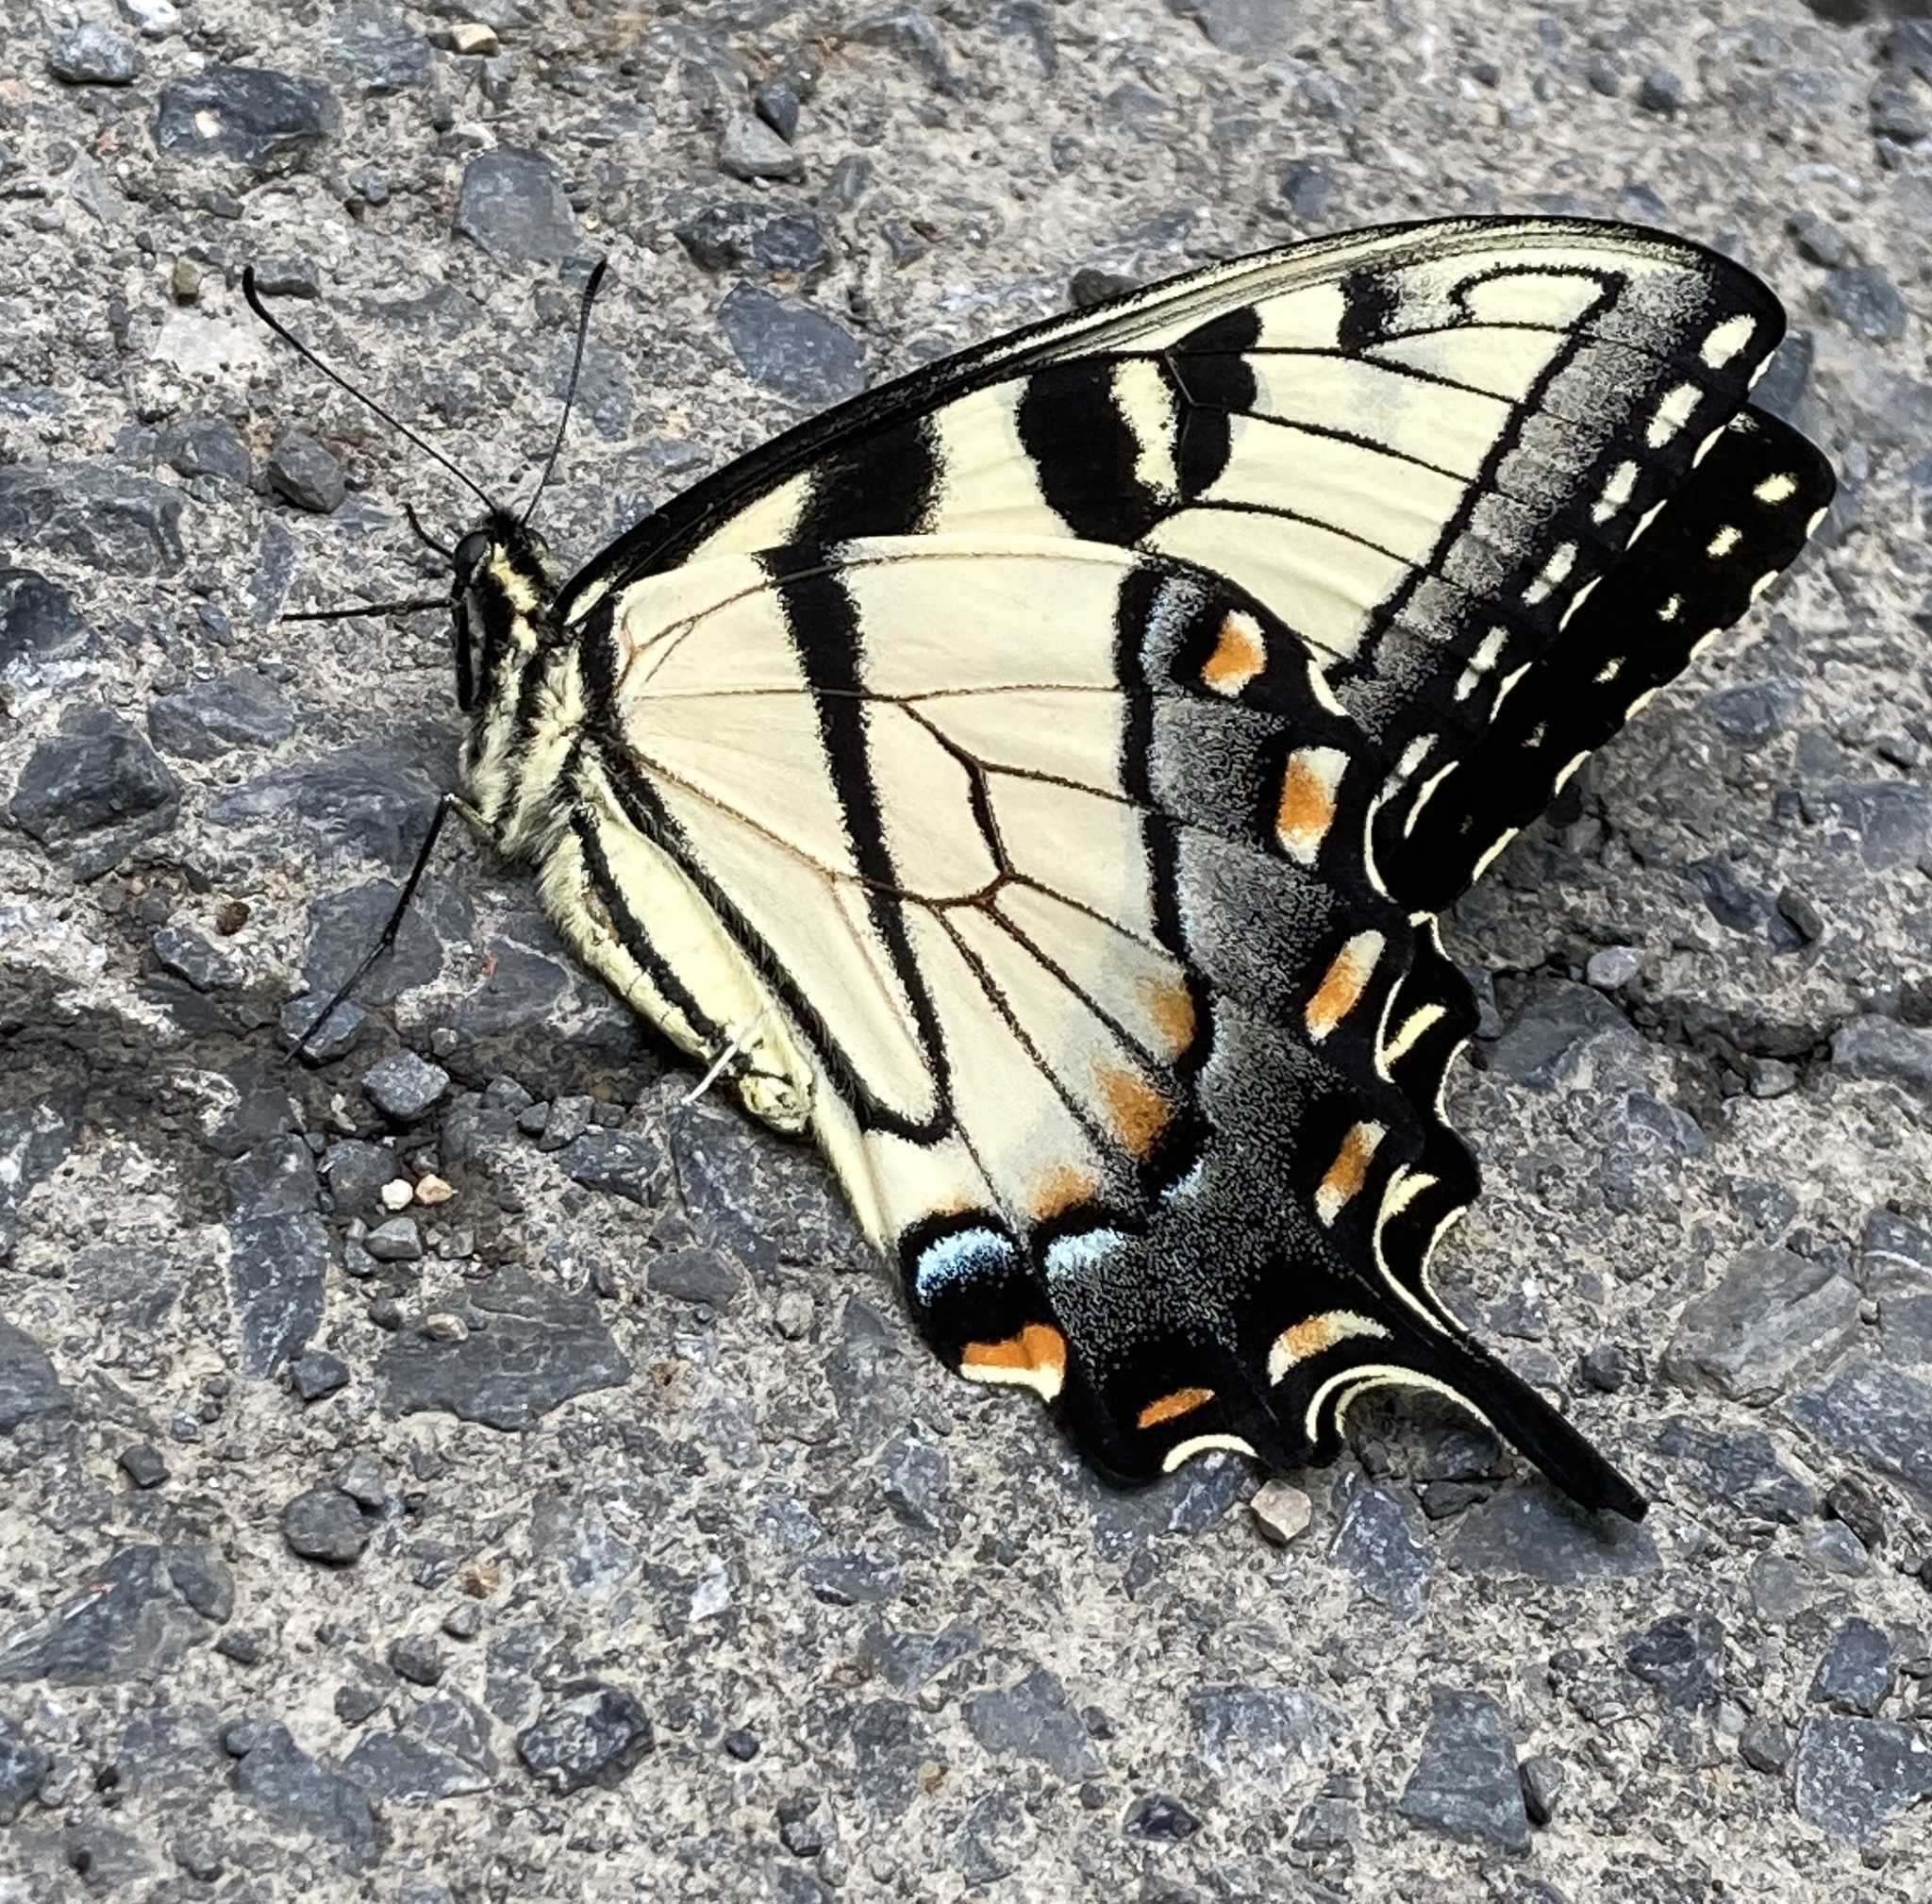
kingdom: Animalia
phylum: Arthropoda
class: Insecta
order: Lepidoptera
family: Papilionidae
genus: Papilio
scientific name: Papilio glaucus
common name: Tiger swallowtail
